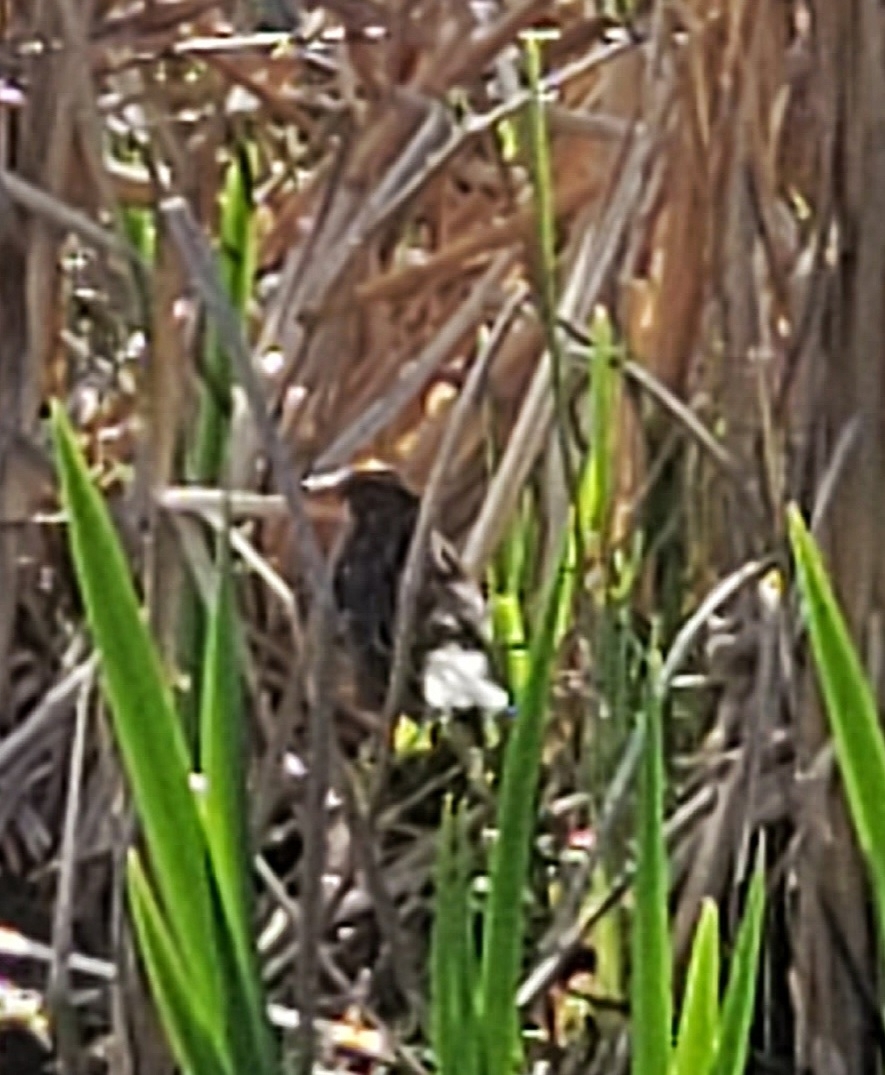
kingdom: Animalia
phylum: Chordata
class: Aves
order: Passeriformes
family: Icteridae
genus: Agelaius
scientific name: Agelaius phoeniceus
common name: Red-winged blackbird
